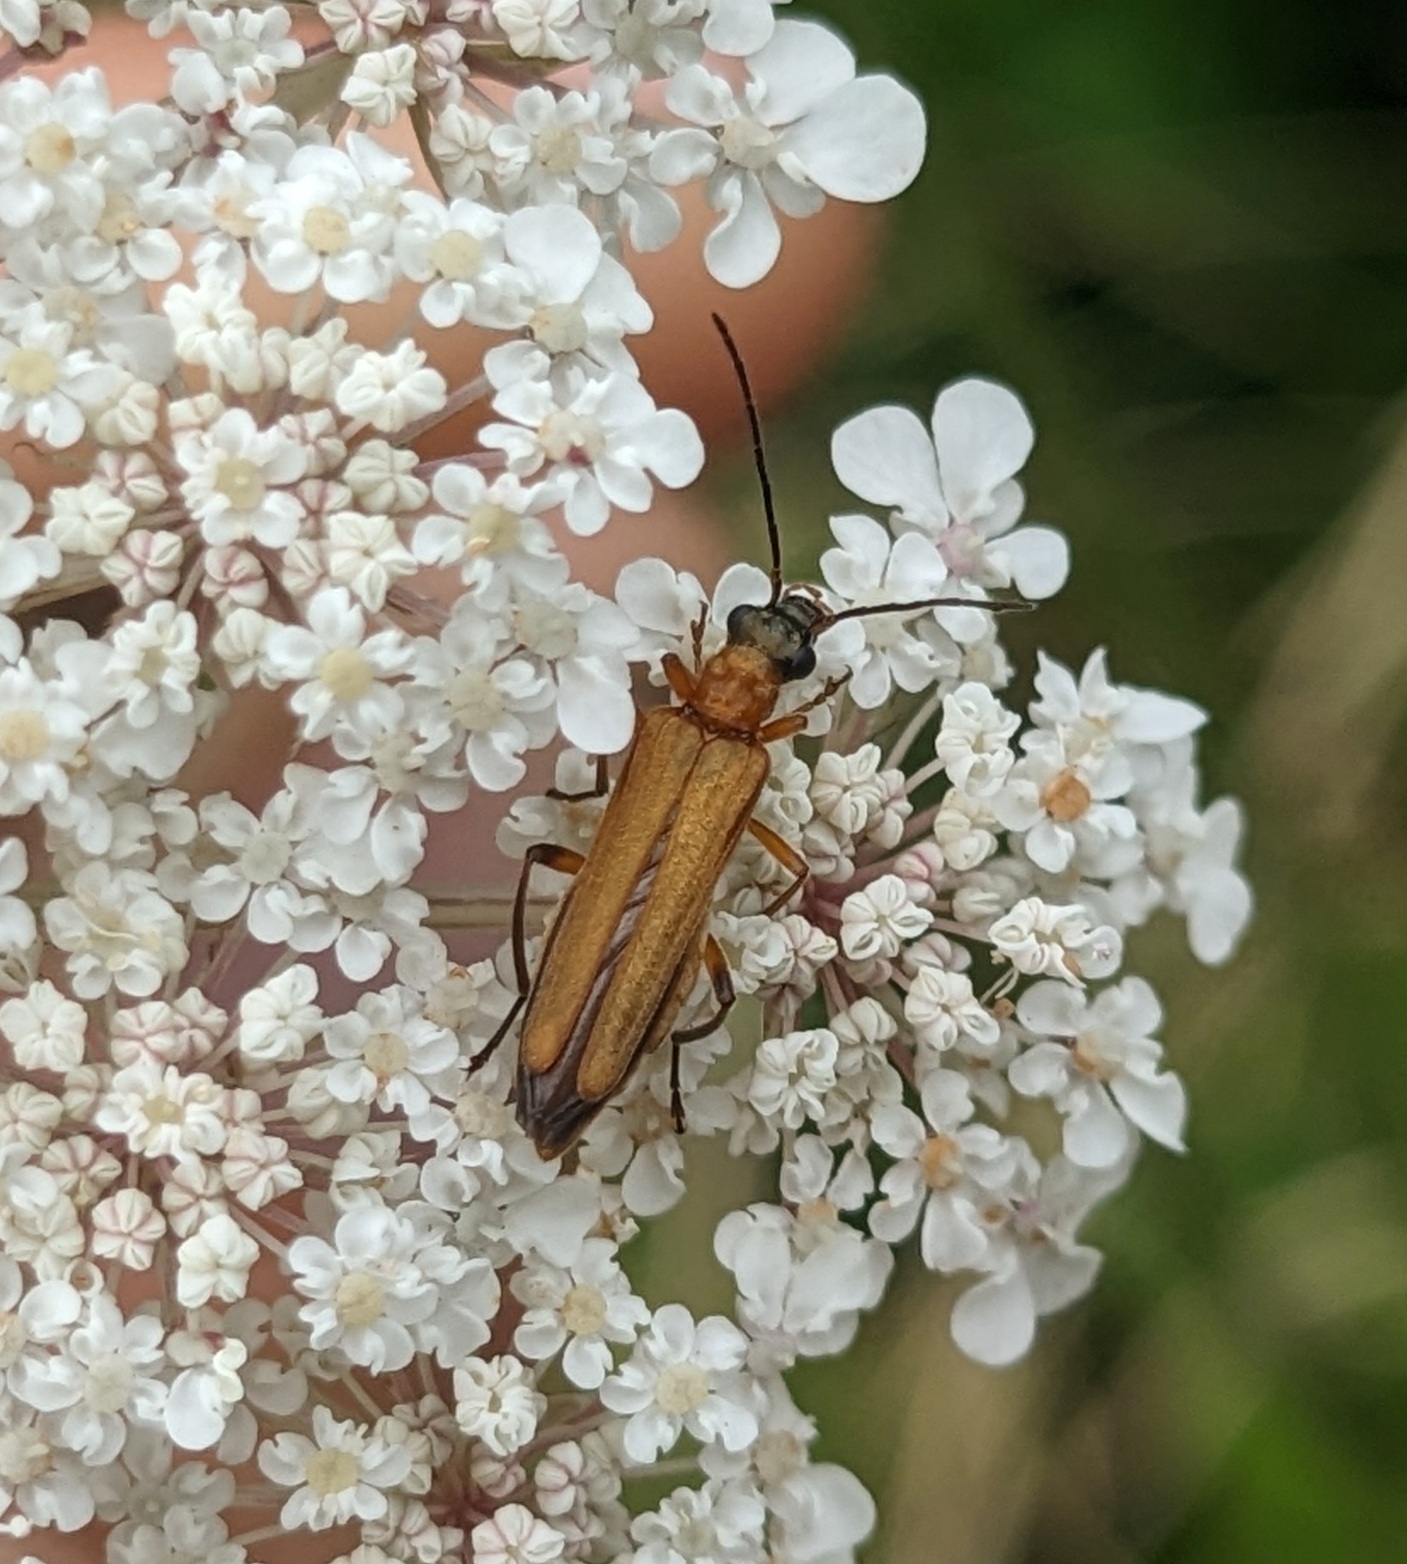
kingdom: Animalia
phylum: Arthropoda
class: Insecta
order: Coleoptera
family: Oedemeridae
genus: Oedemera
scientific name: Oedemera podagrariae
